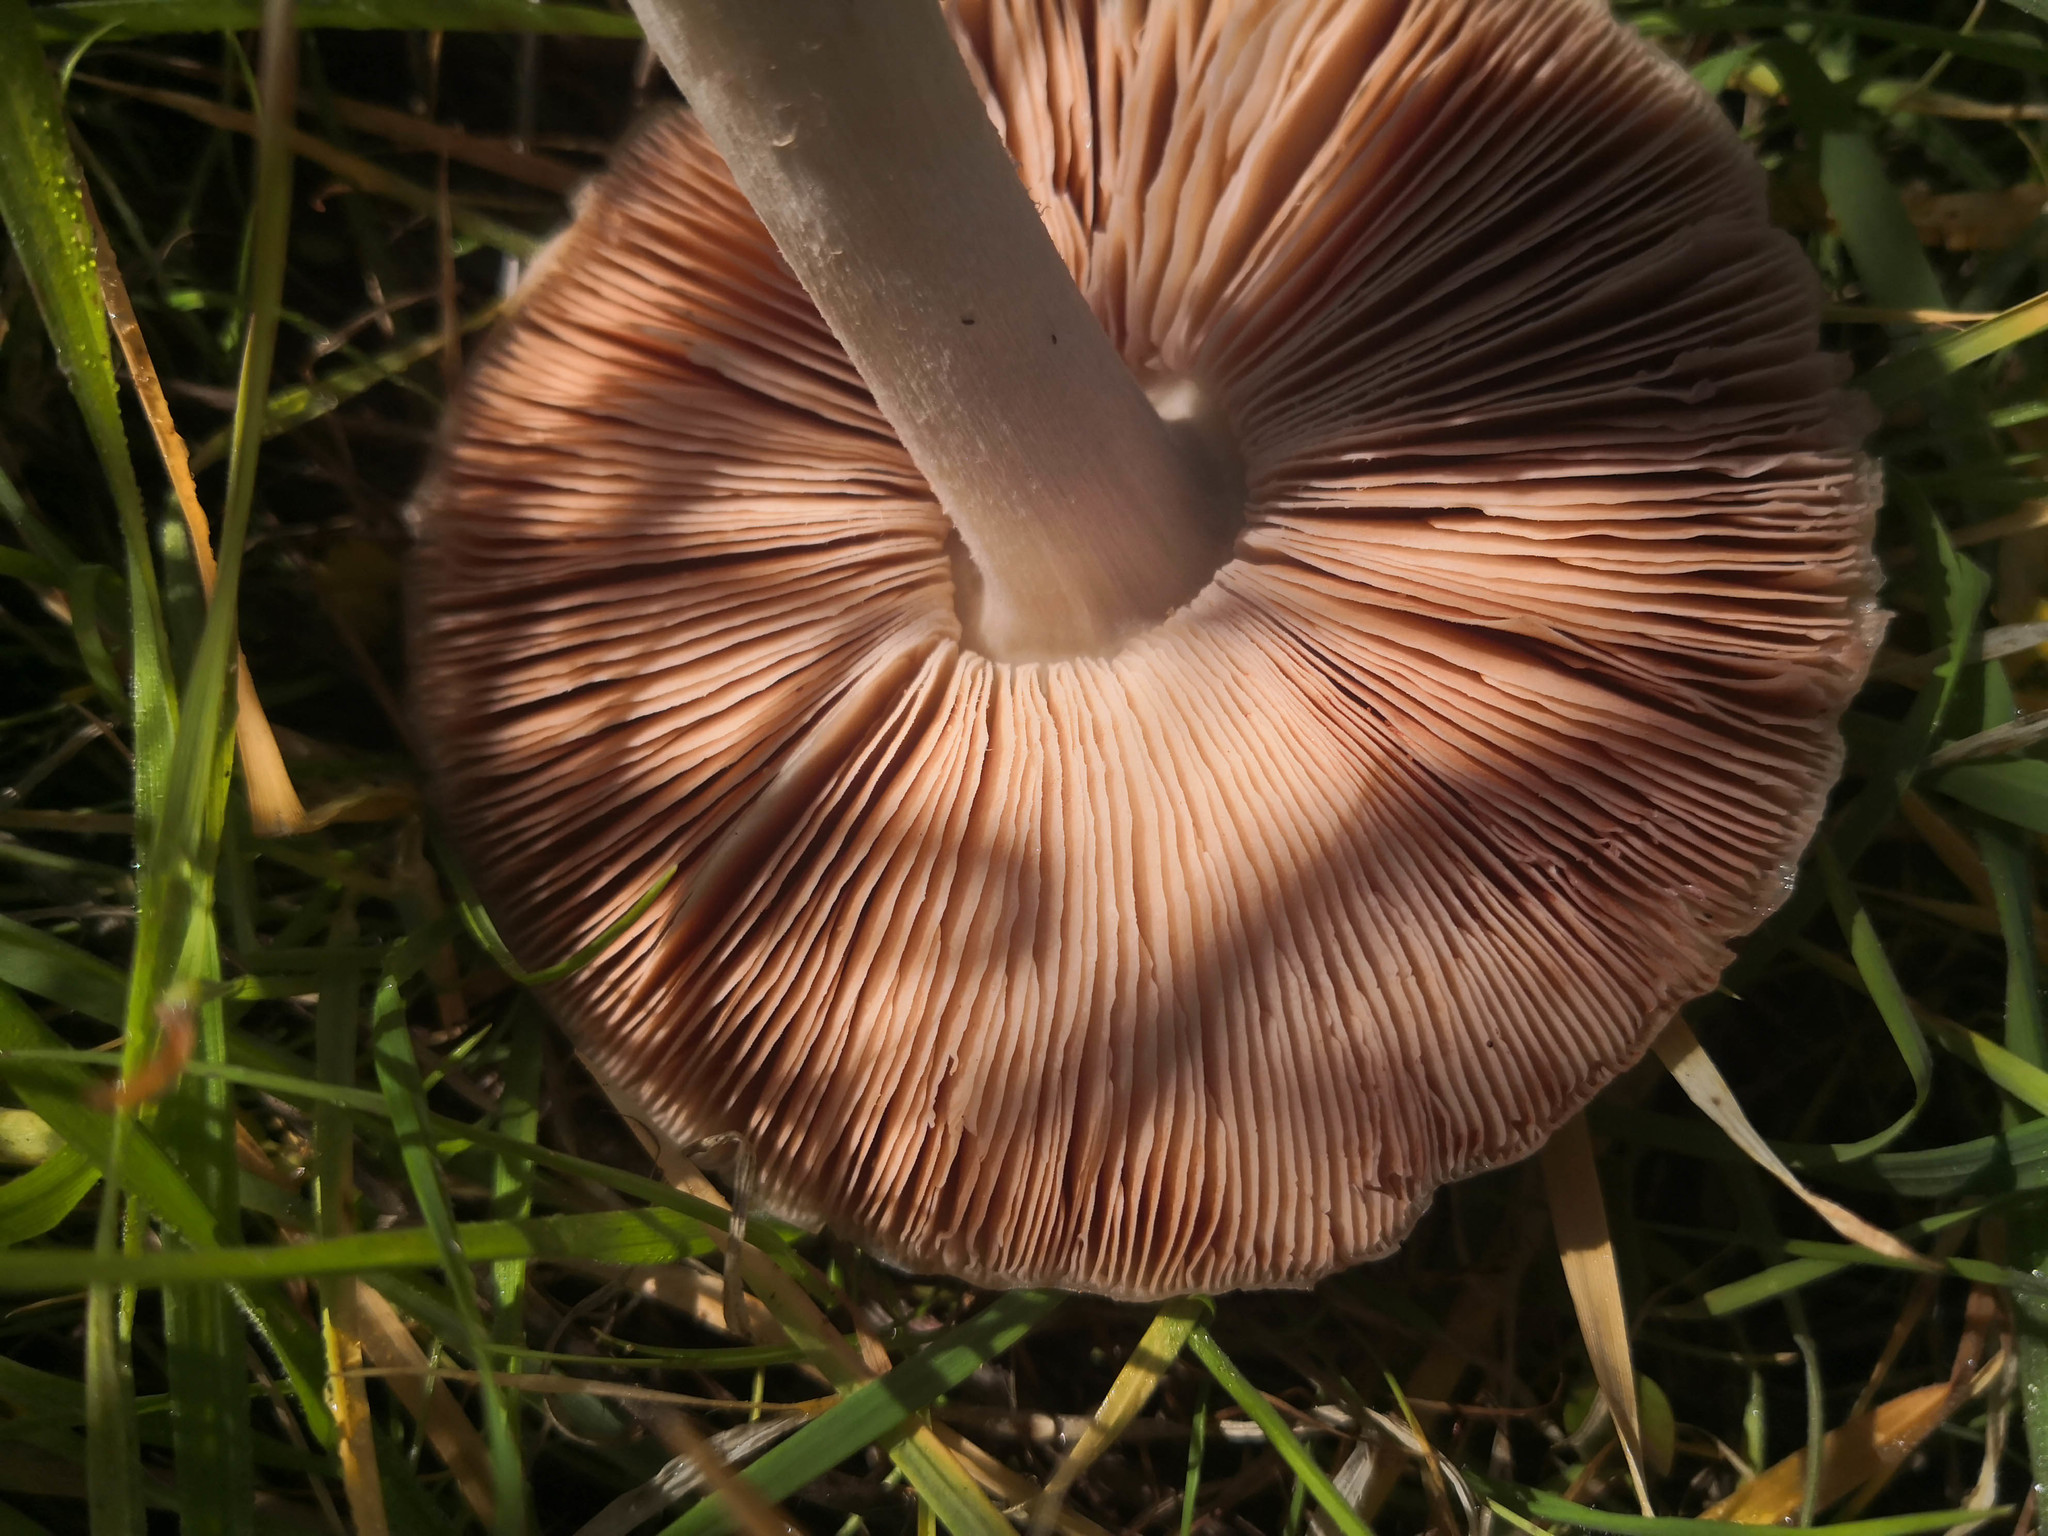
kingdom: Fungi
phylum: Basidiomycota
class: Agaricomycetes
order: Agaricales
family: Pluteaceae
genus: Volvopluteus
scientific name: Volvopluteus gloiocephalus
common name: Stubble rosegill
